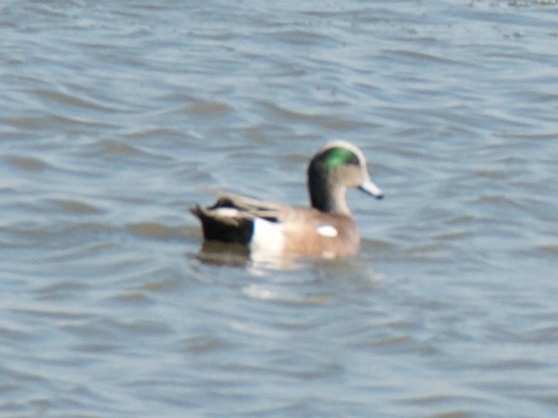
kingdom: Animalia
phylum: Chordata
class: Aves
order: Anseriformes
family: Anatidae
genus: Mareca
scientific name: Mareca americana
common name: American wigeon
